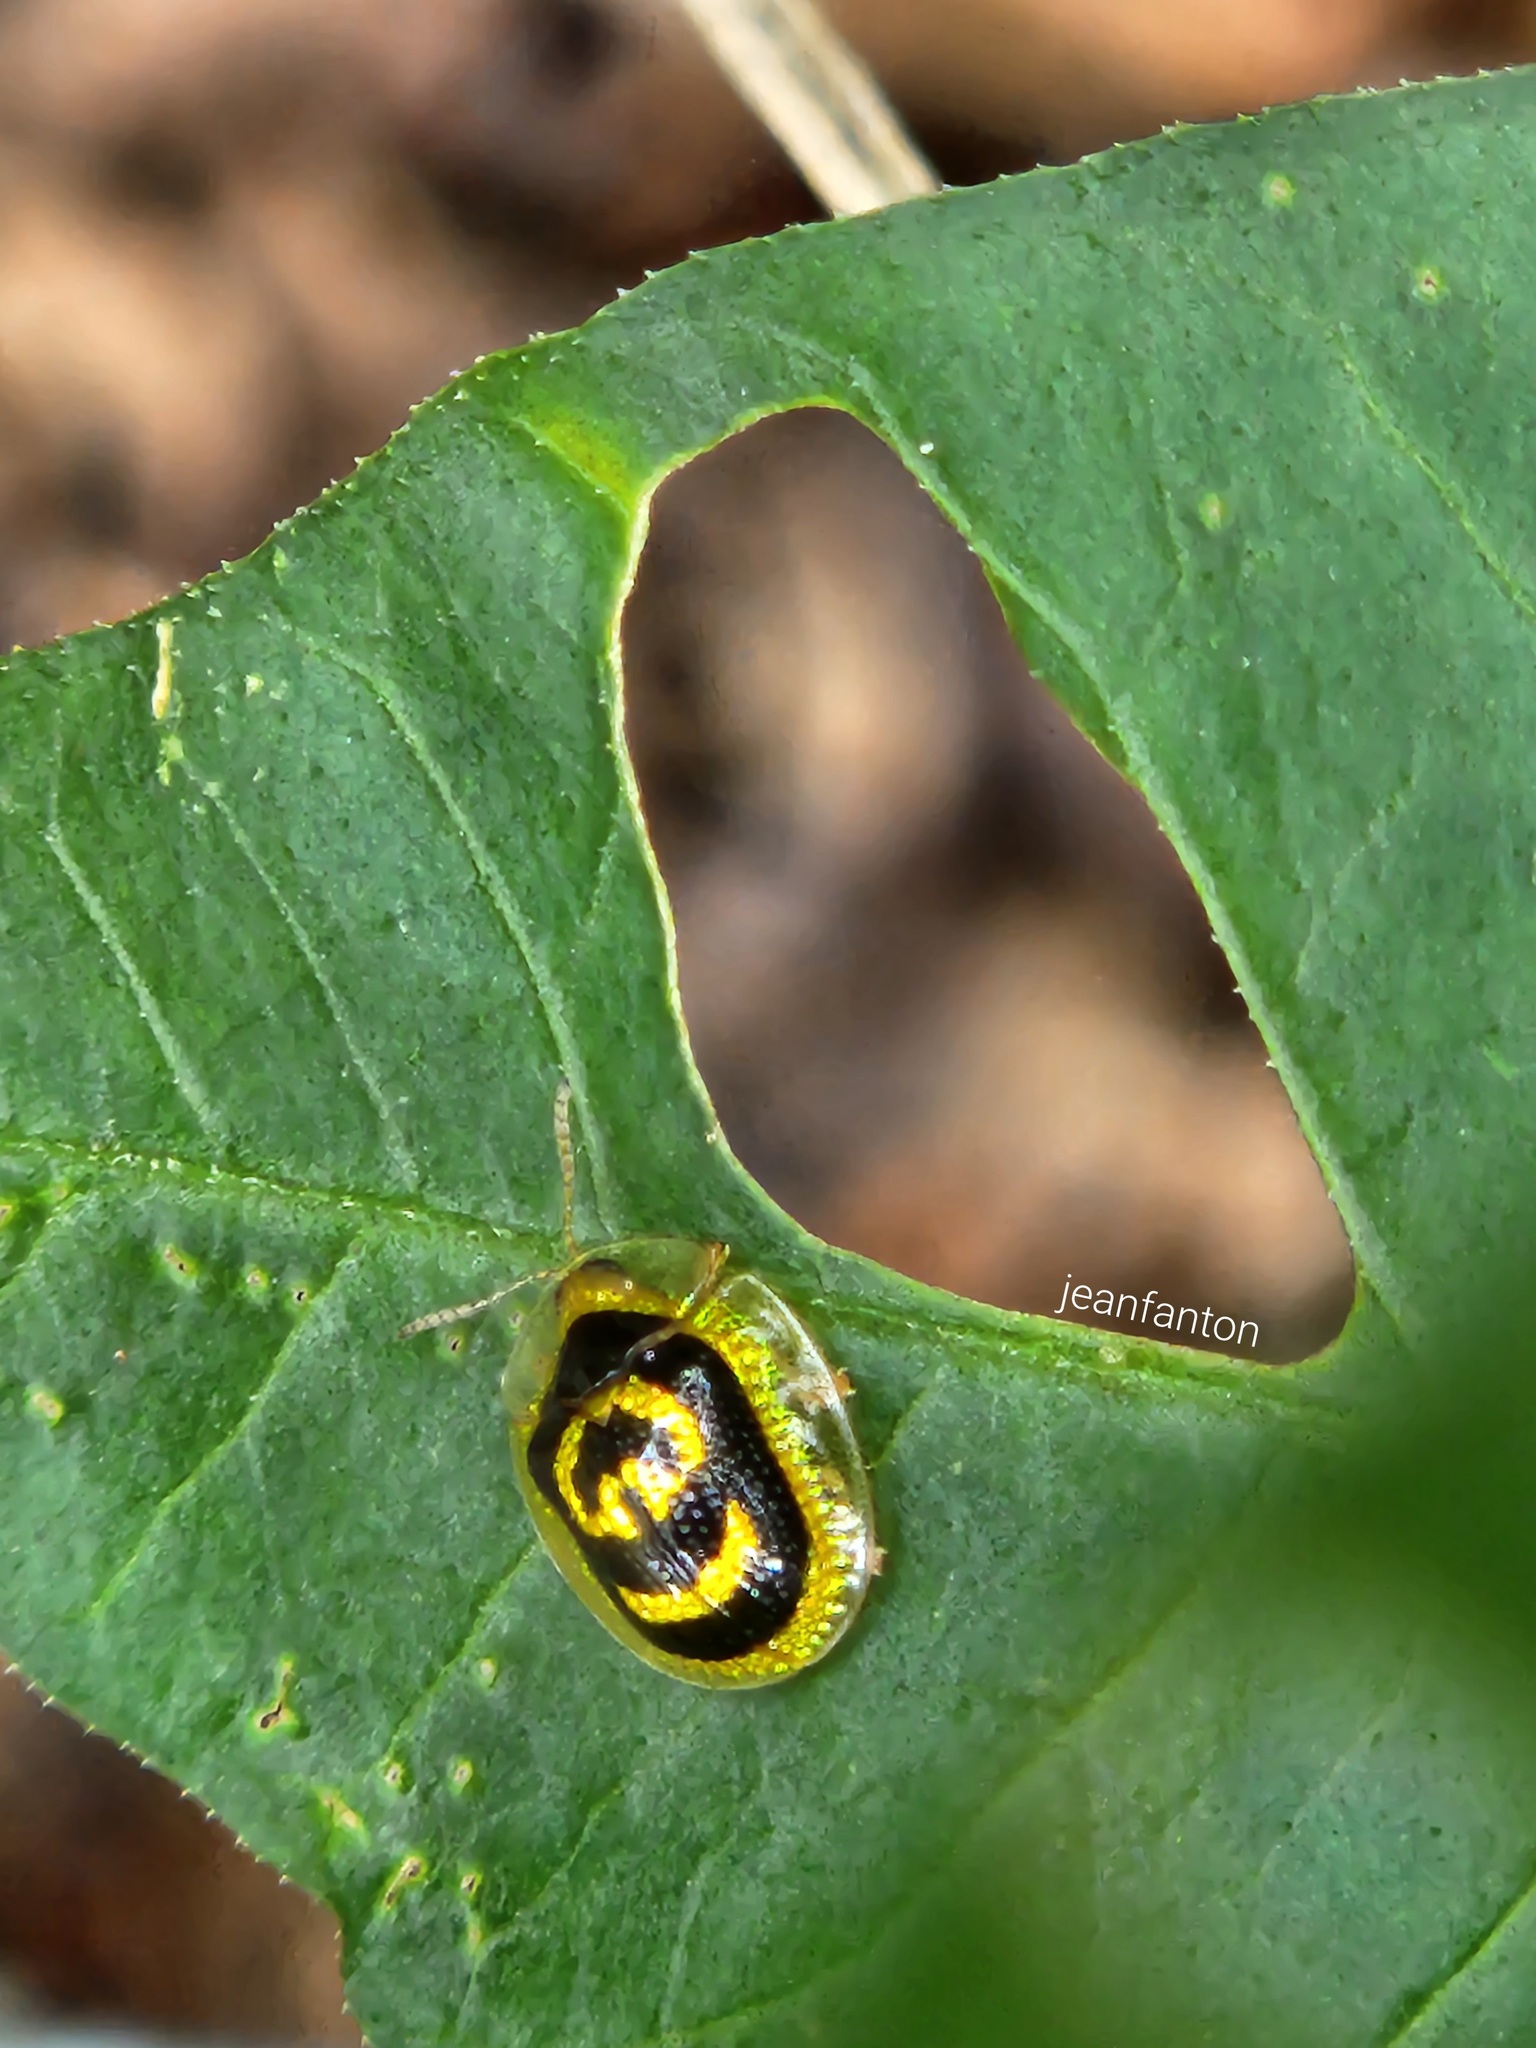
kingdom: Animalia
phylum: Arthropoda
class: Insecta
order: Coleoptera
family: Chrysomelidae
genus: Microctenochira
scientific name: Microctenochira soleifera
